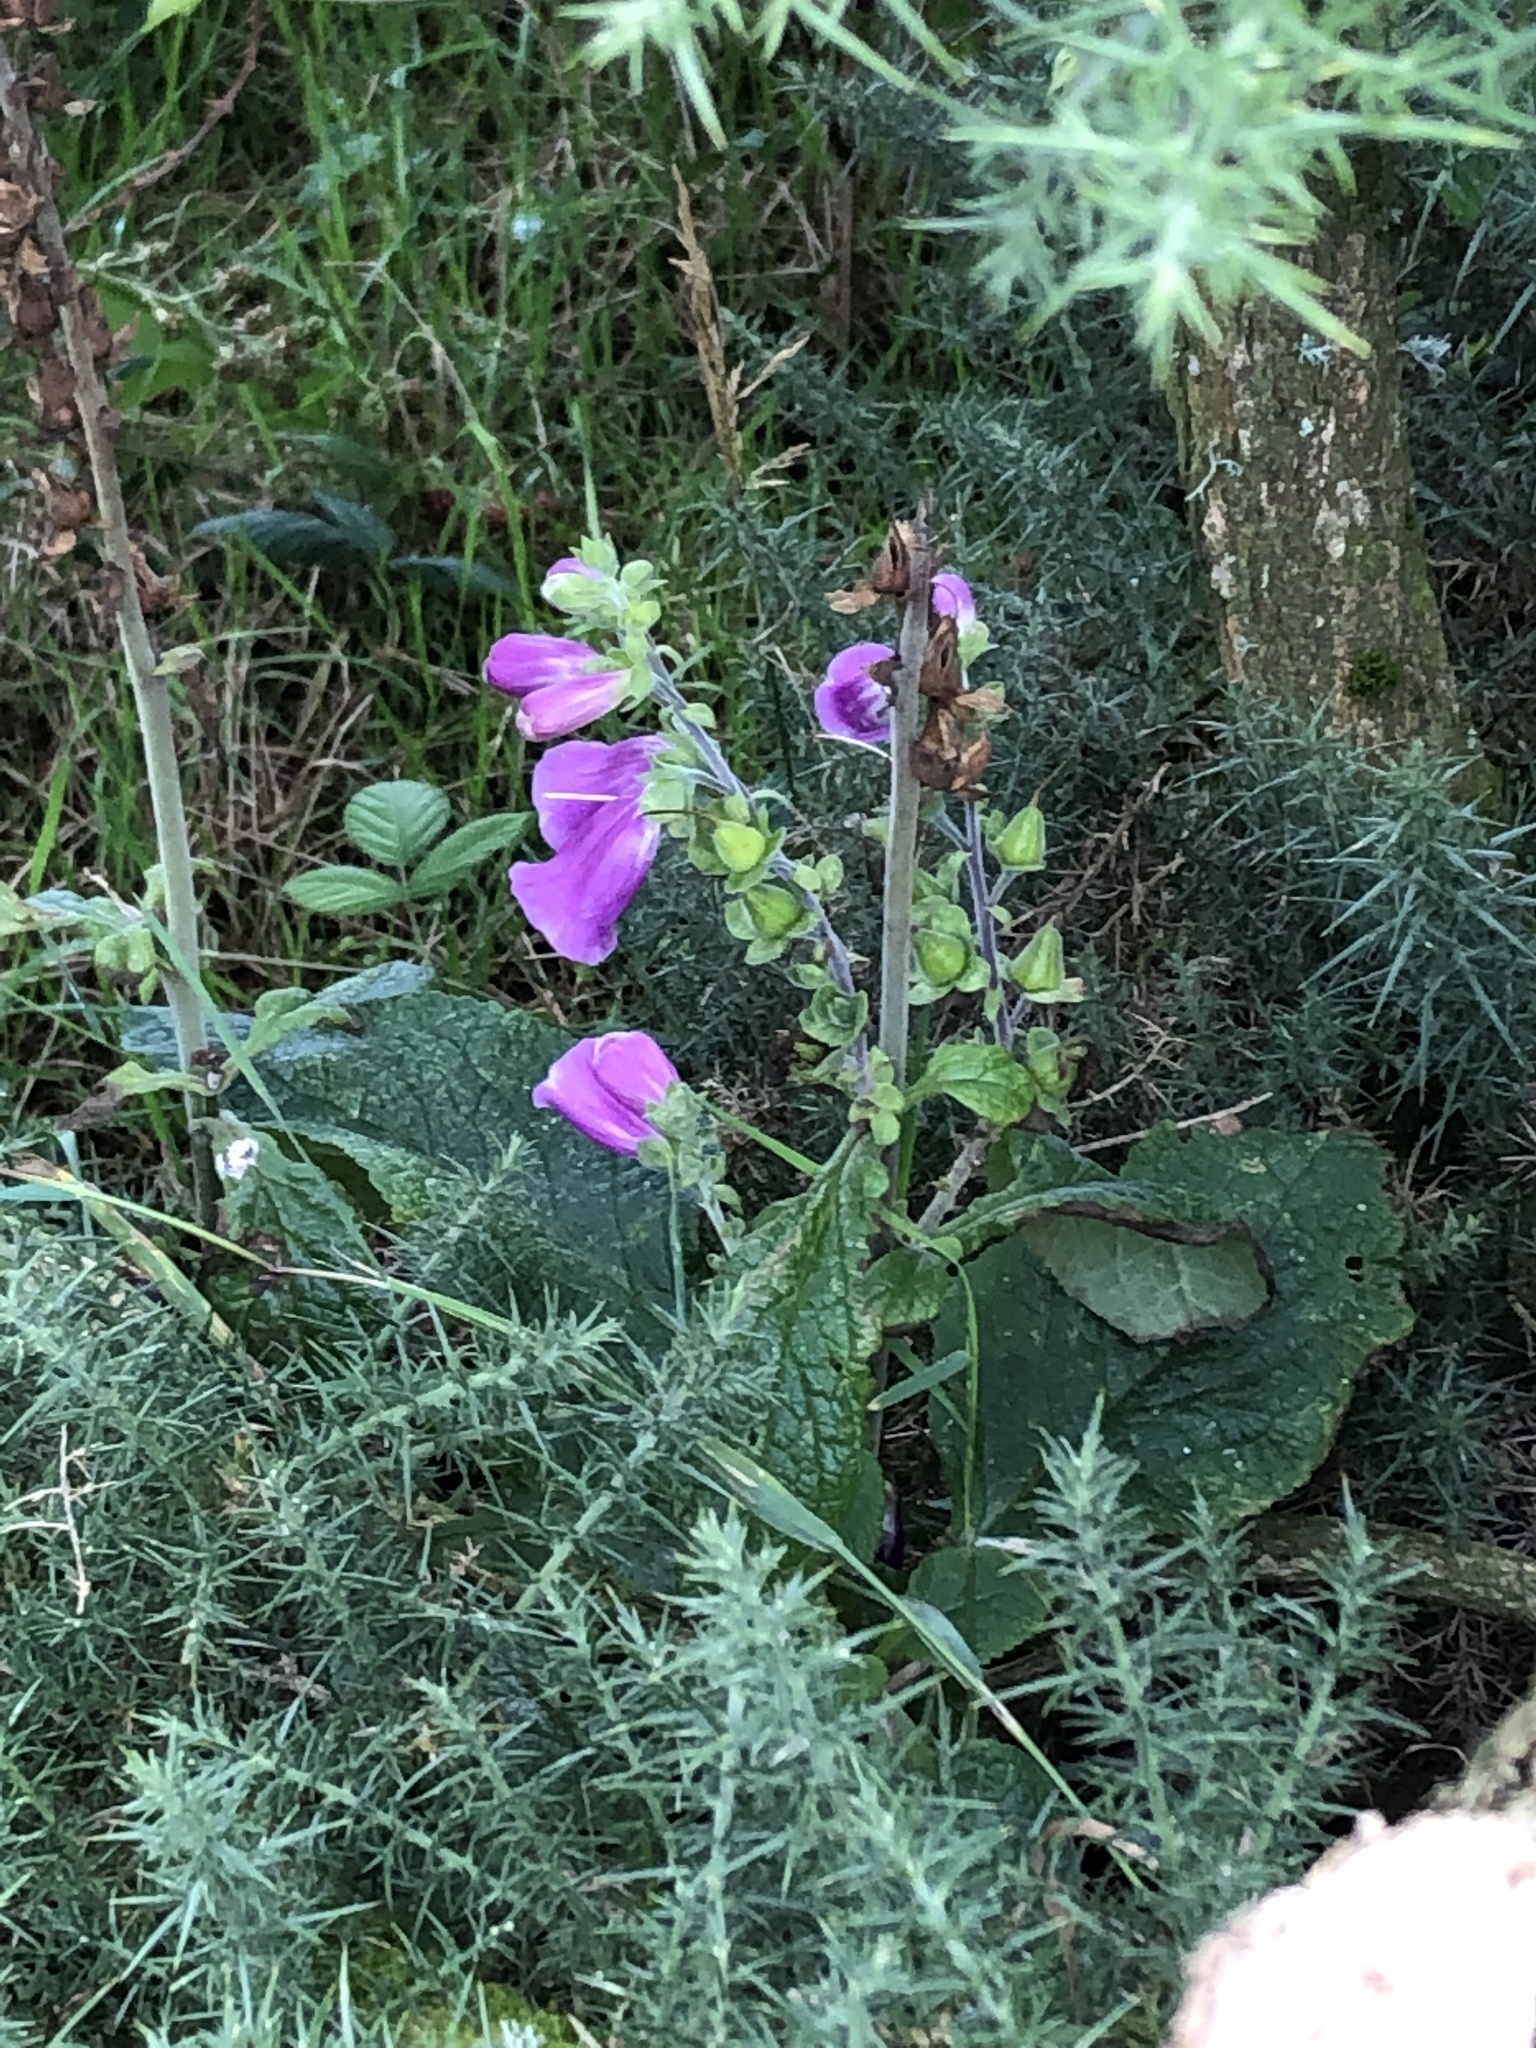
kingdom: Plantae
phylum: Tracheophyta
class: Magnoliopsida
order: Lamiales
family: Plantaginaceae
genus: Digitalis
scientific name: Digitalis purpurea
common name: Foxglove
